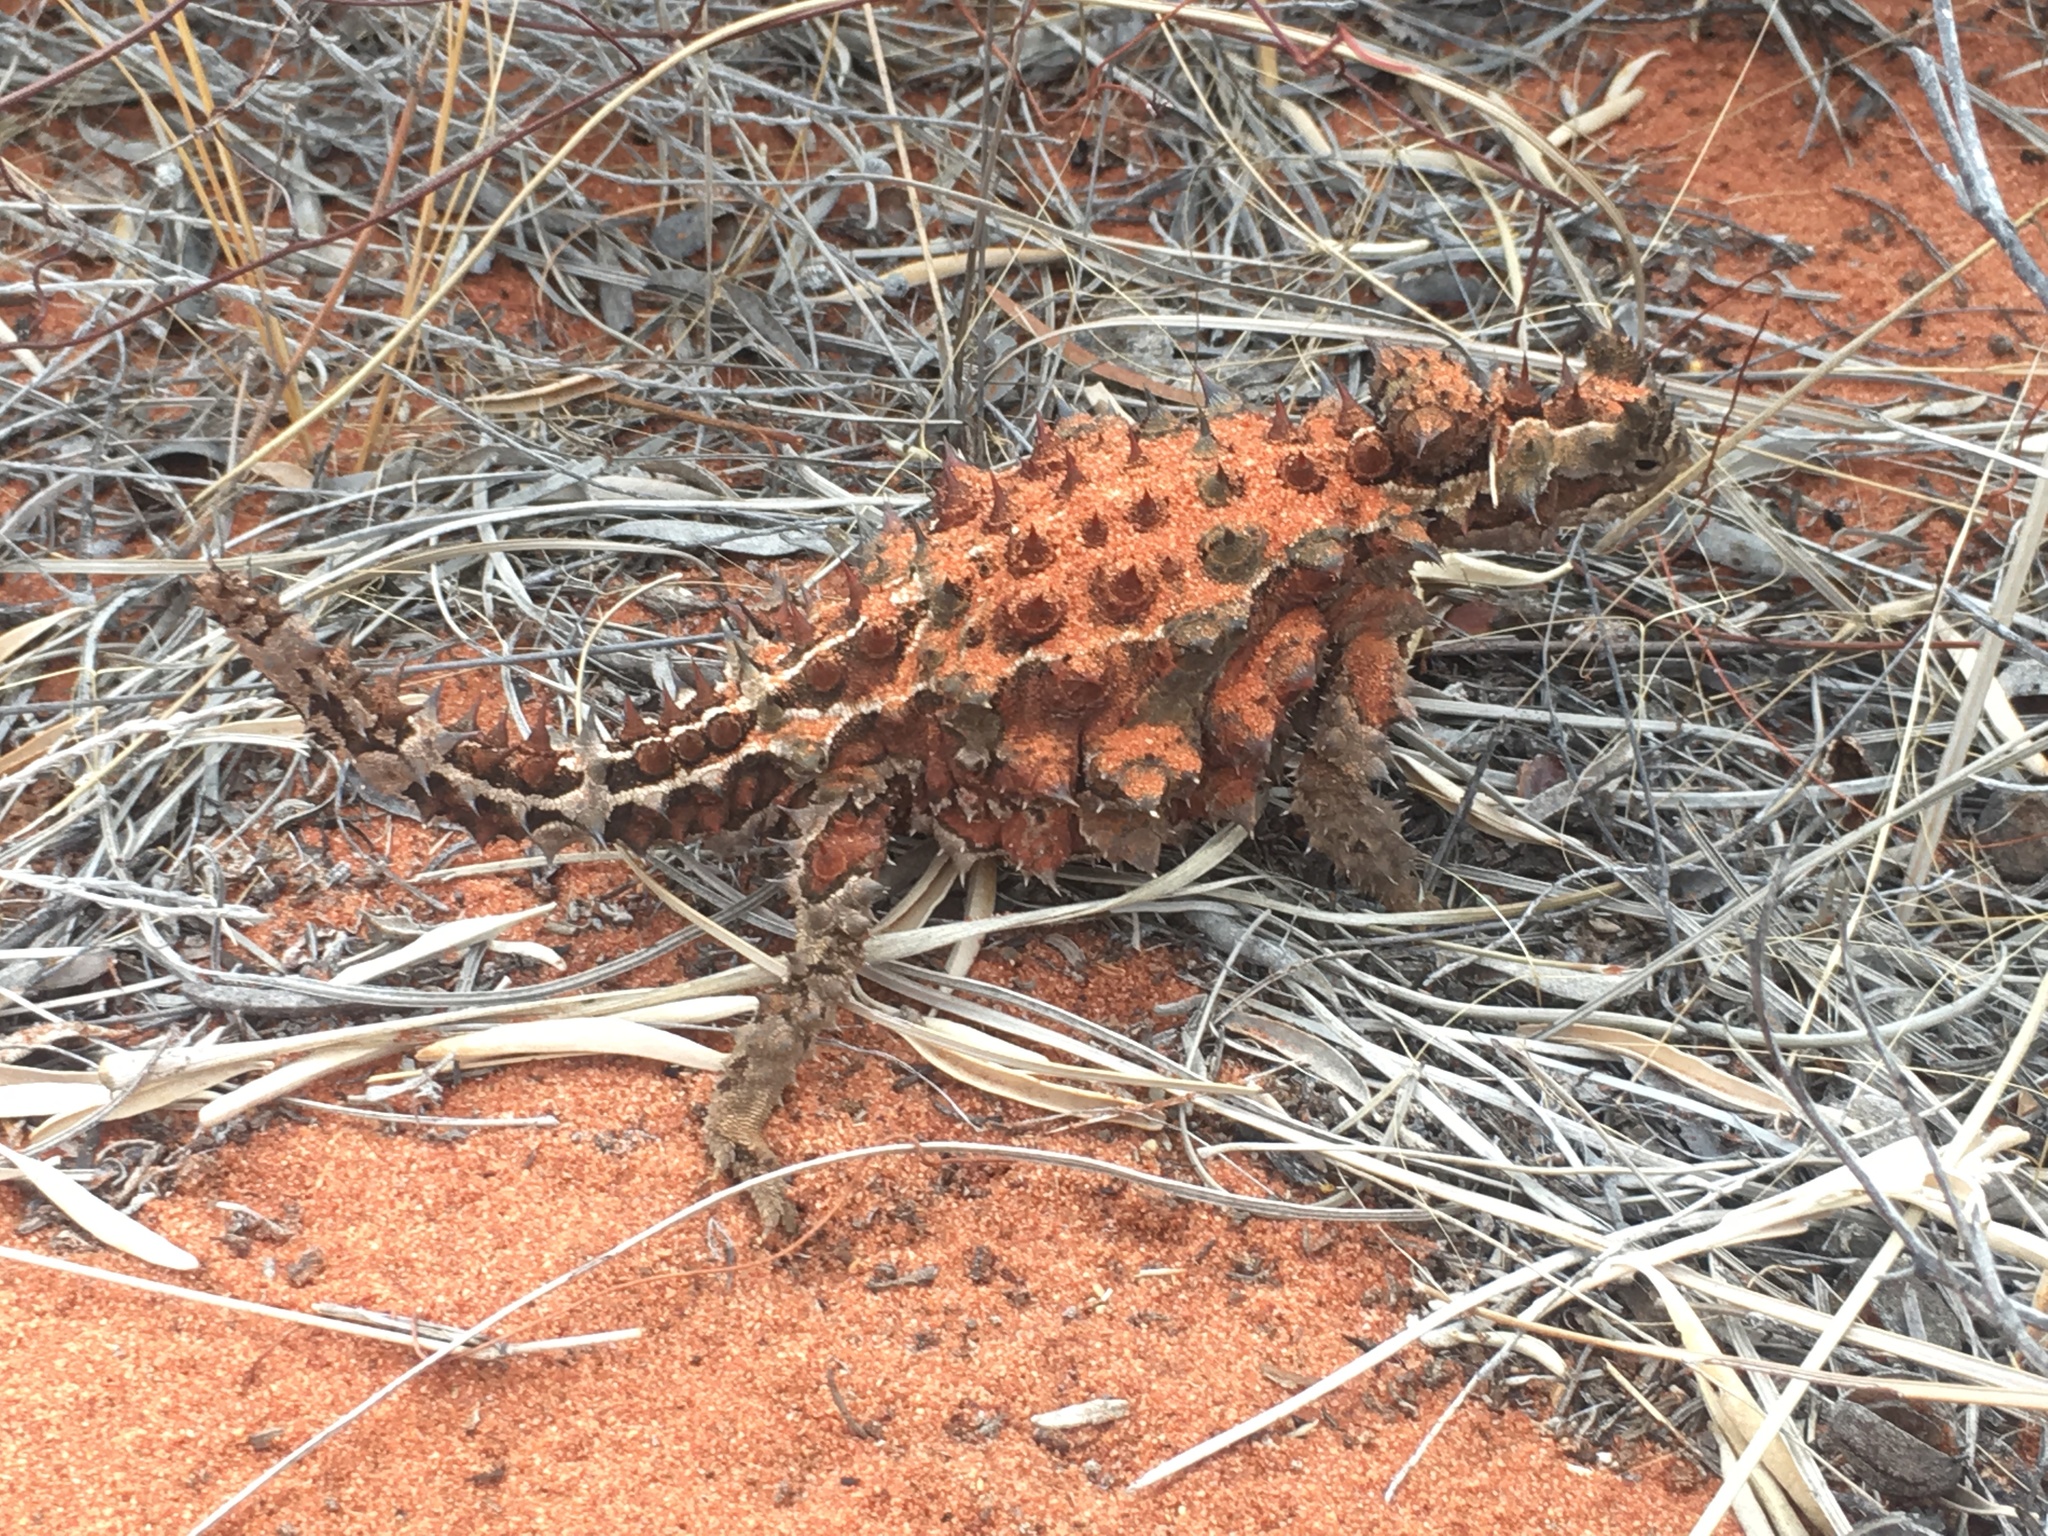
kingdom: Animalia
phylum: Chordata
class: Squamata
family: Agamidae
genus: Moloch
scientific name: Moloch horridus
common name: Mountain devil
